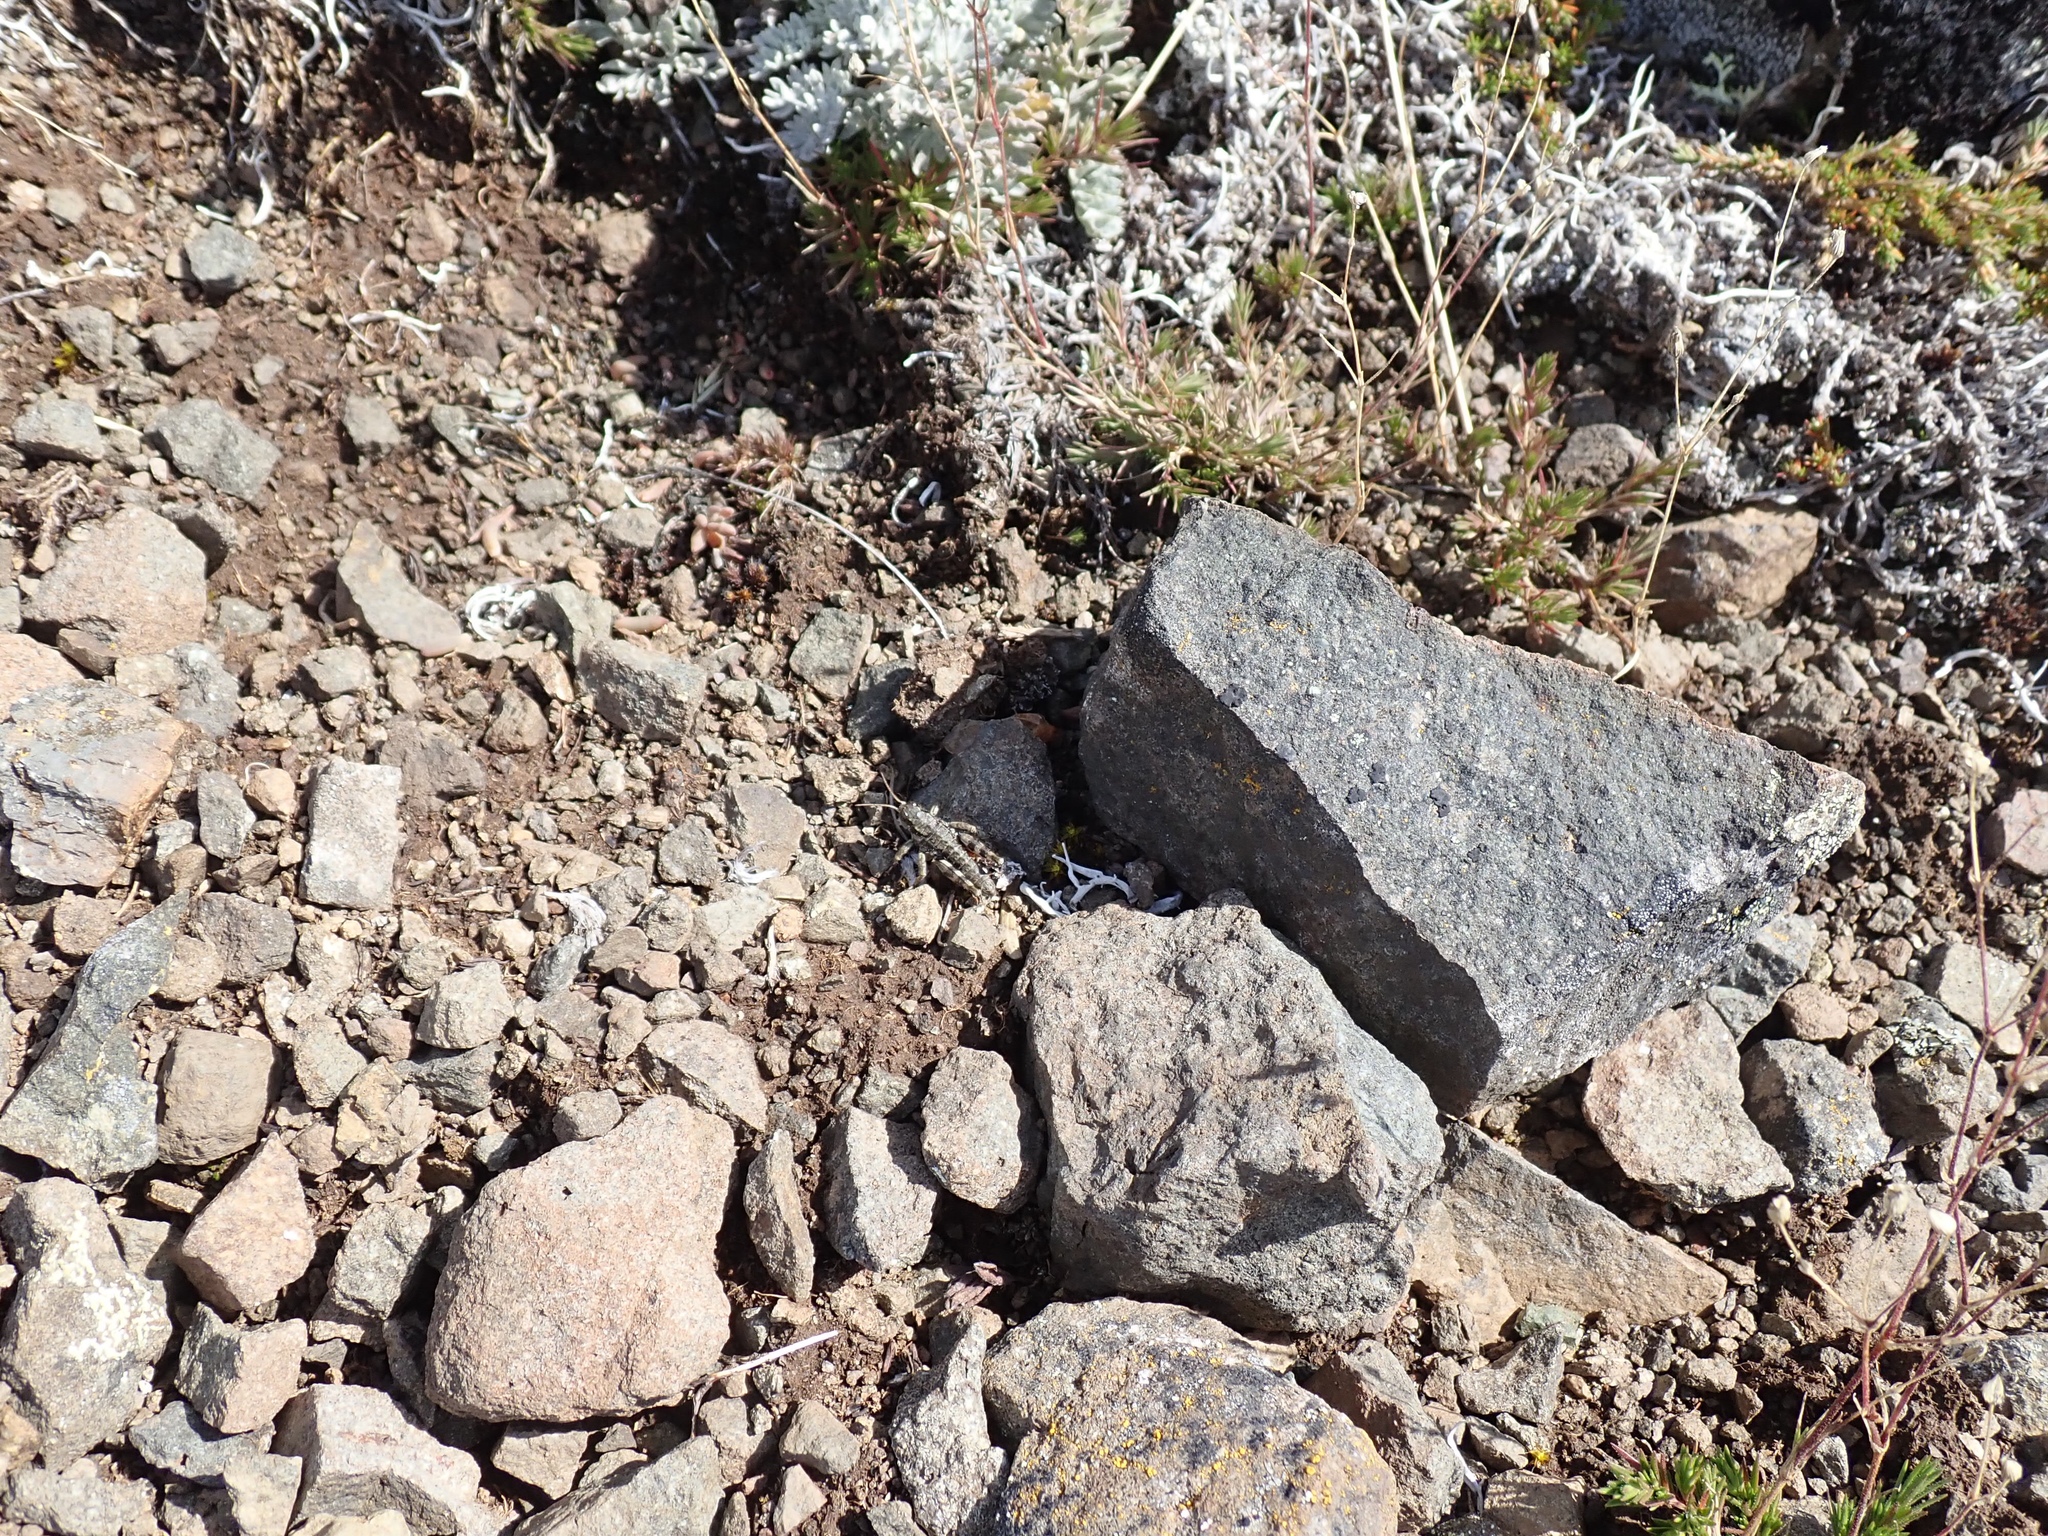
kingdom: Animalia
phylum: Arthropoda
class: Insecta
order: Orthoptera
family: Acrididae
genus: Nisquallia
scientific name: Nisquallia olympica
